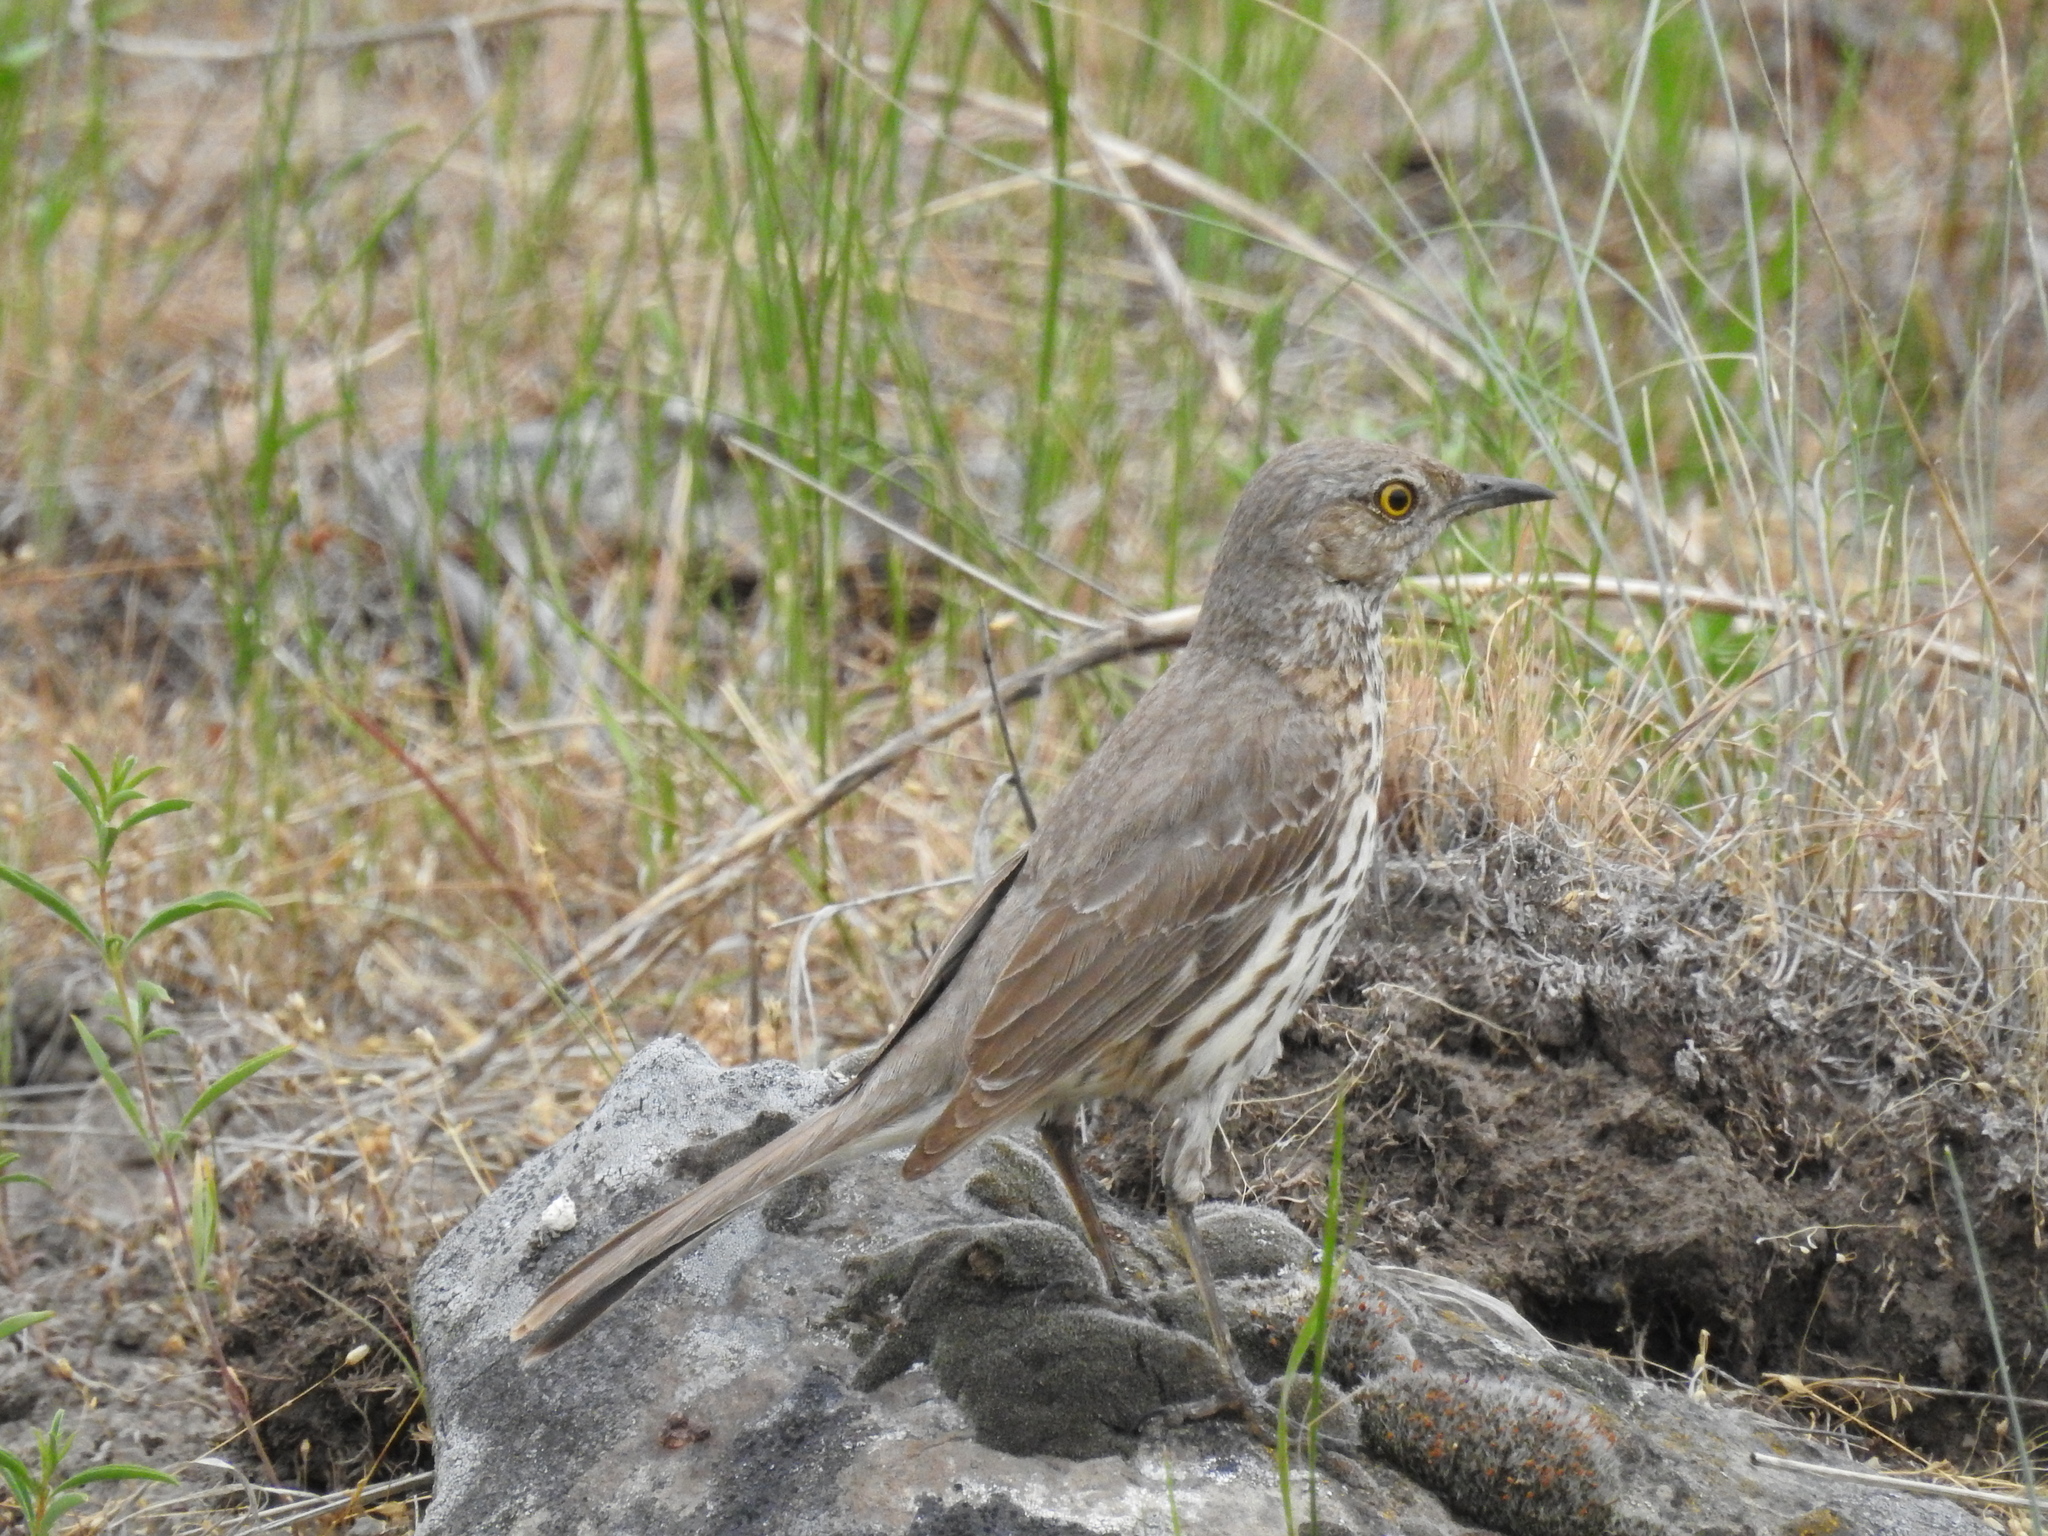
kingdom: Animalia
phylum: Chordata
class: Aves
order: Passeriformes
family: Mimidae
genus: Oreoscoptes
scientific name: Oreoscoptes montanus
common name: Sage thrasher
